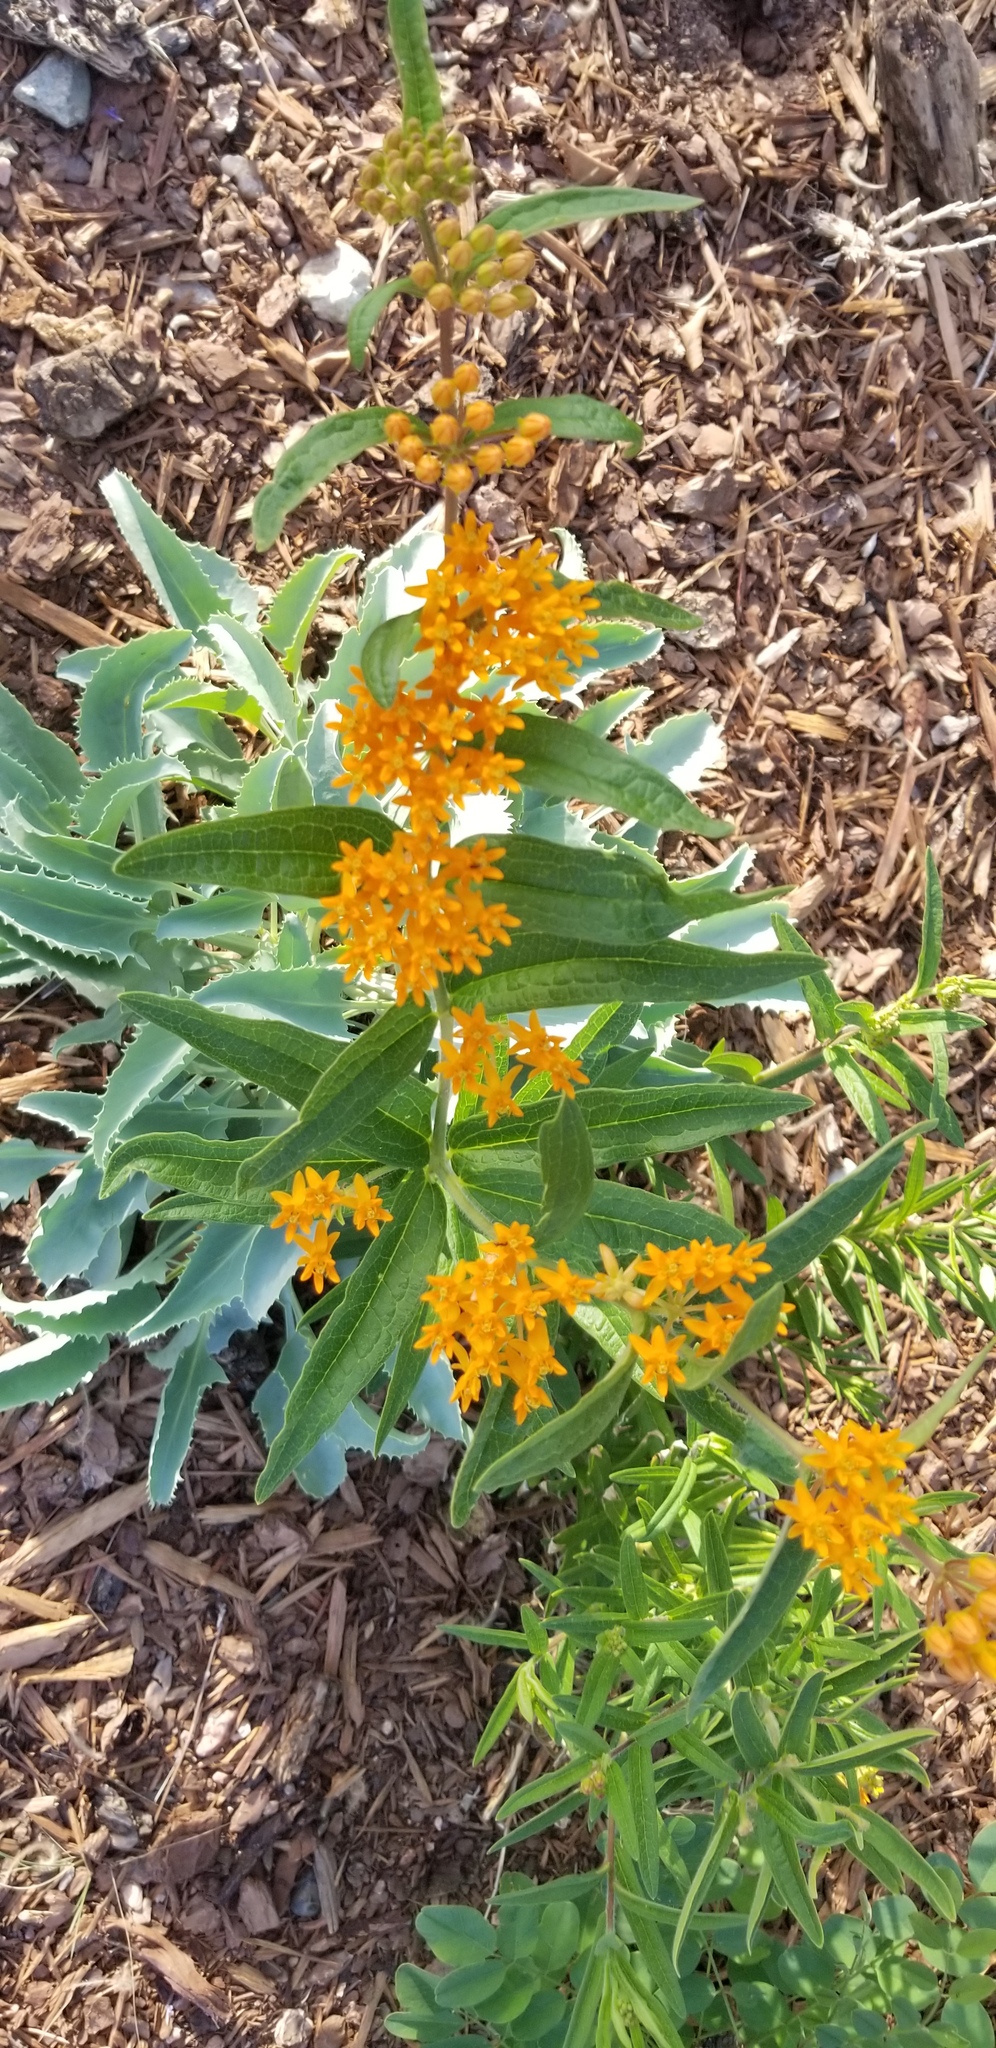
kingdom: Plantae
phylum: Tracheophyta
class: Magnoliopsida
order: Gentianales
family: Apocynaceae
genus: Asclepias
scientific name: Asclepias tuberosa
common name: Butterfly milkweed
